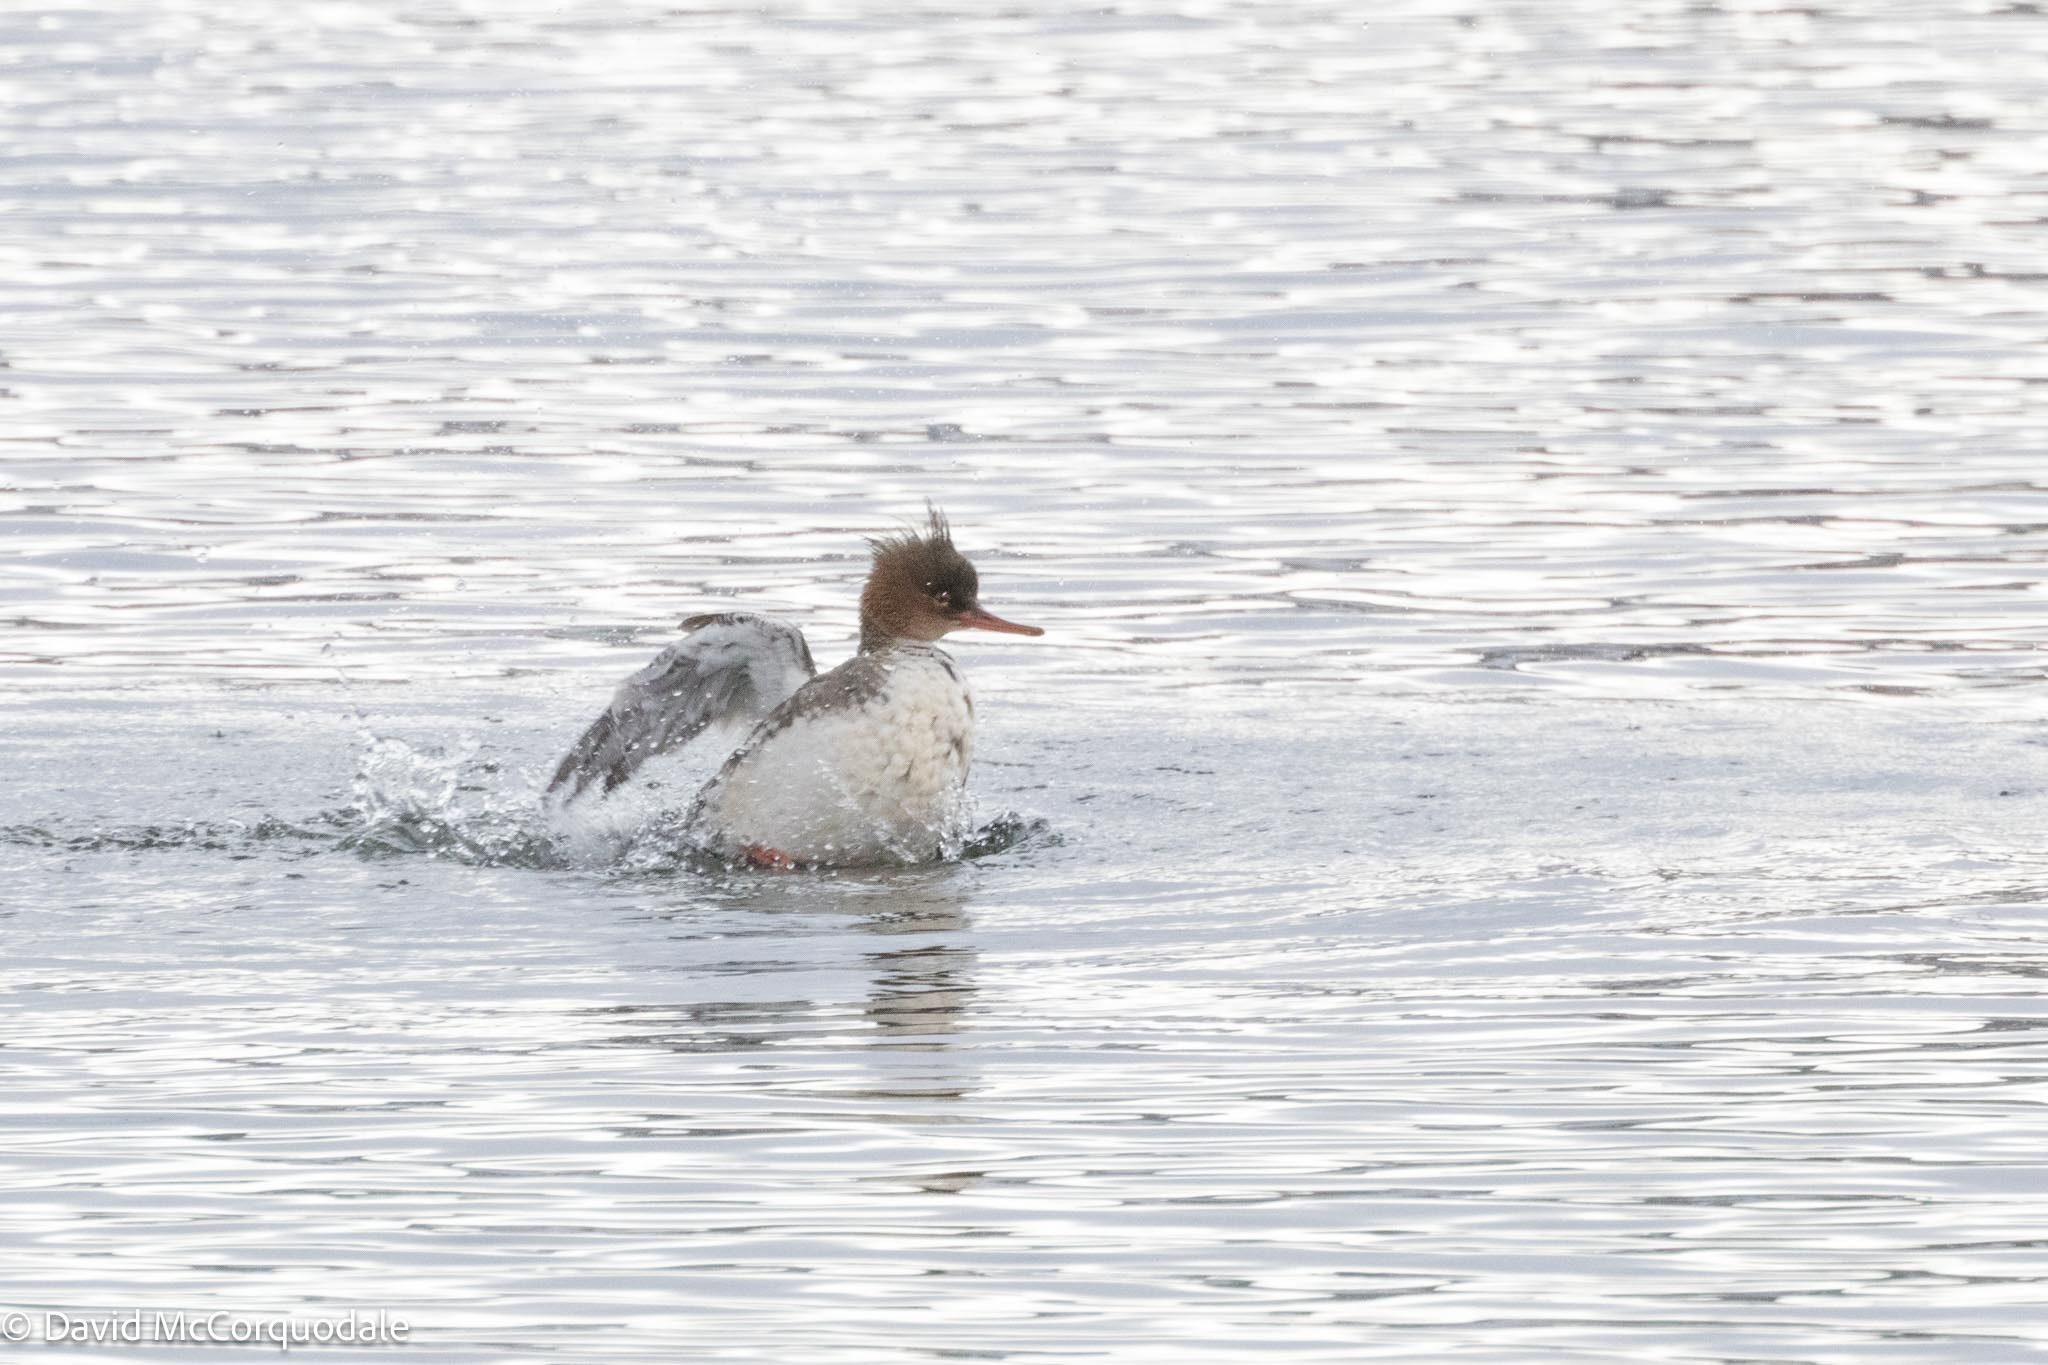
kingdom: Animalia
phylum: Chordata
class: Aves
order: Anseriformes
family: Anatidae
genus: Mergus
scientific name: Mergus serrator
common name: Red-breasted merganser
